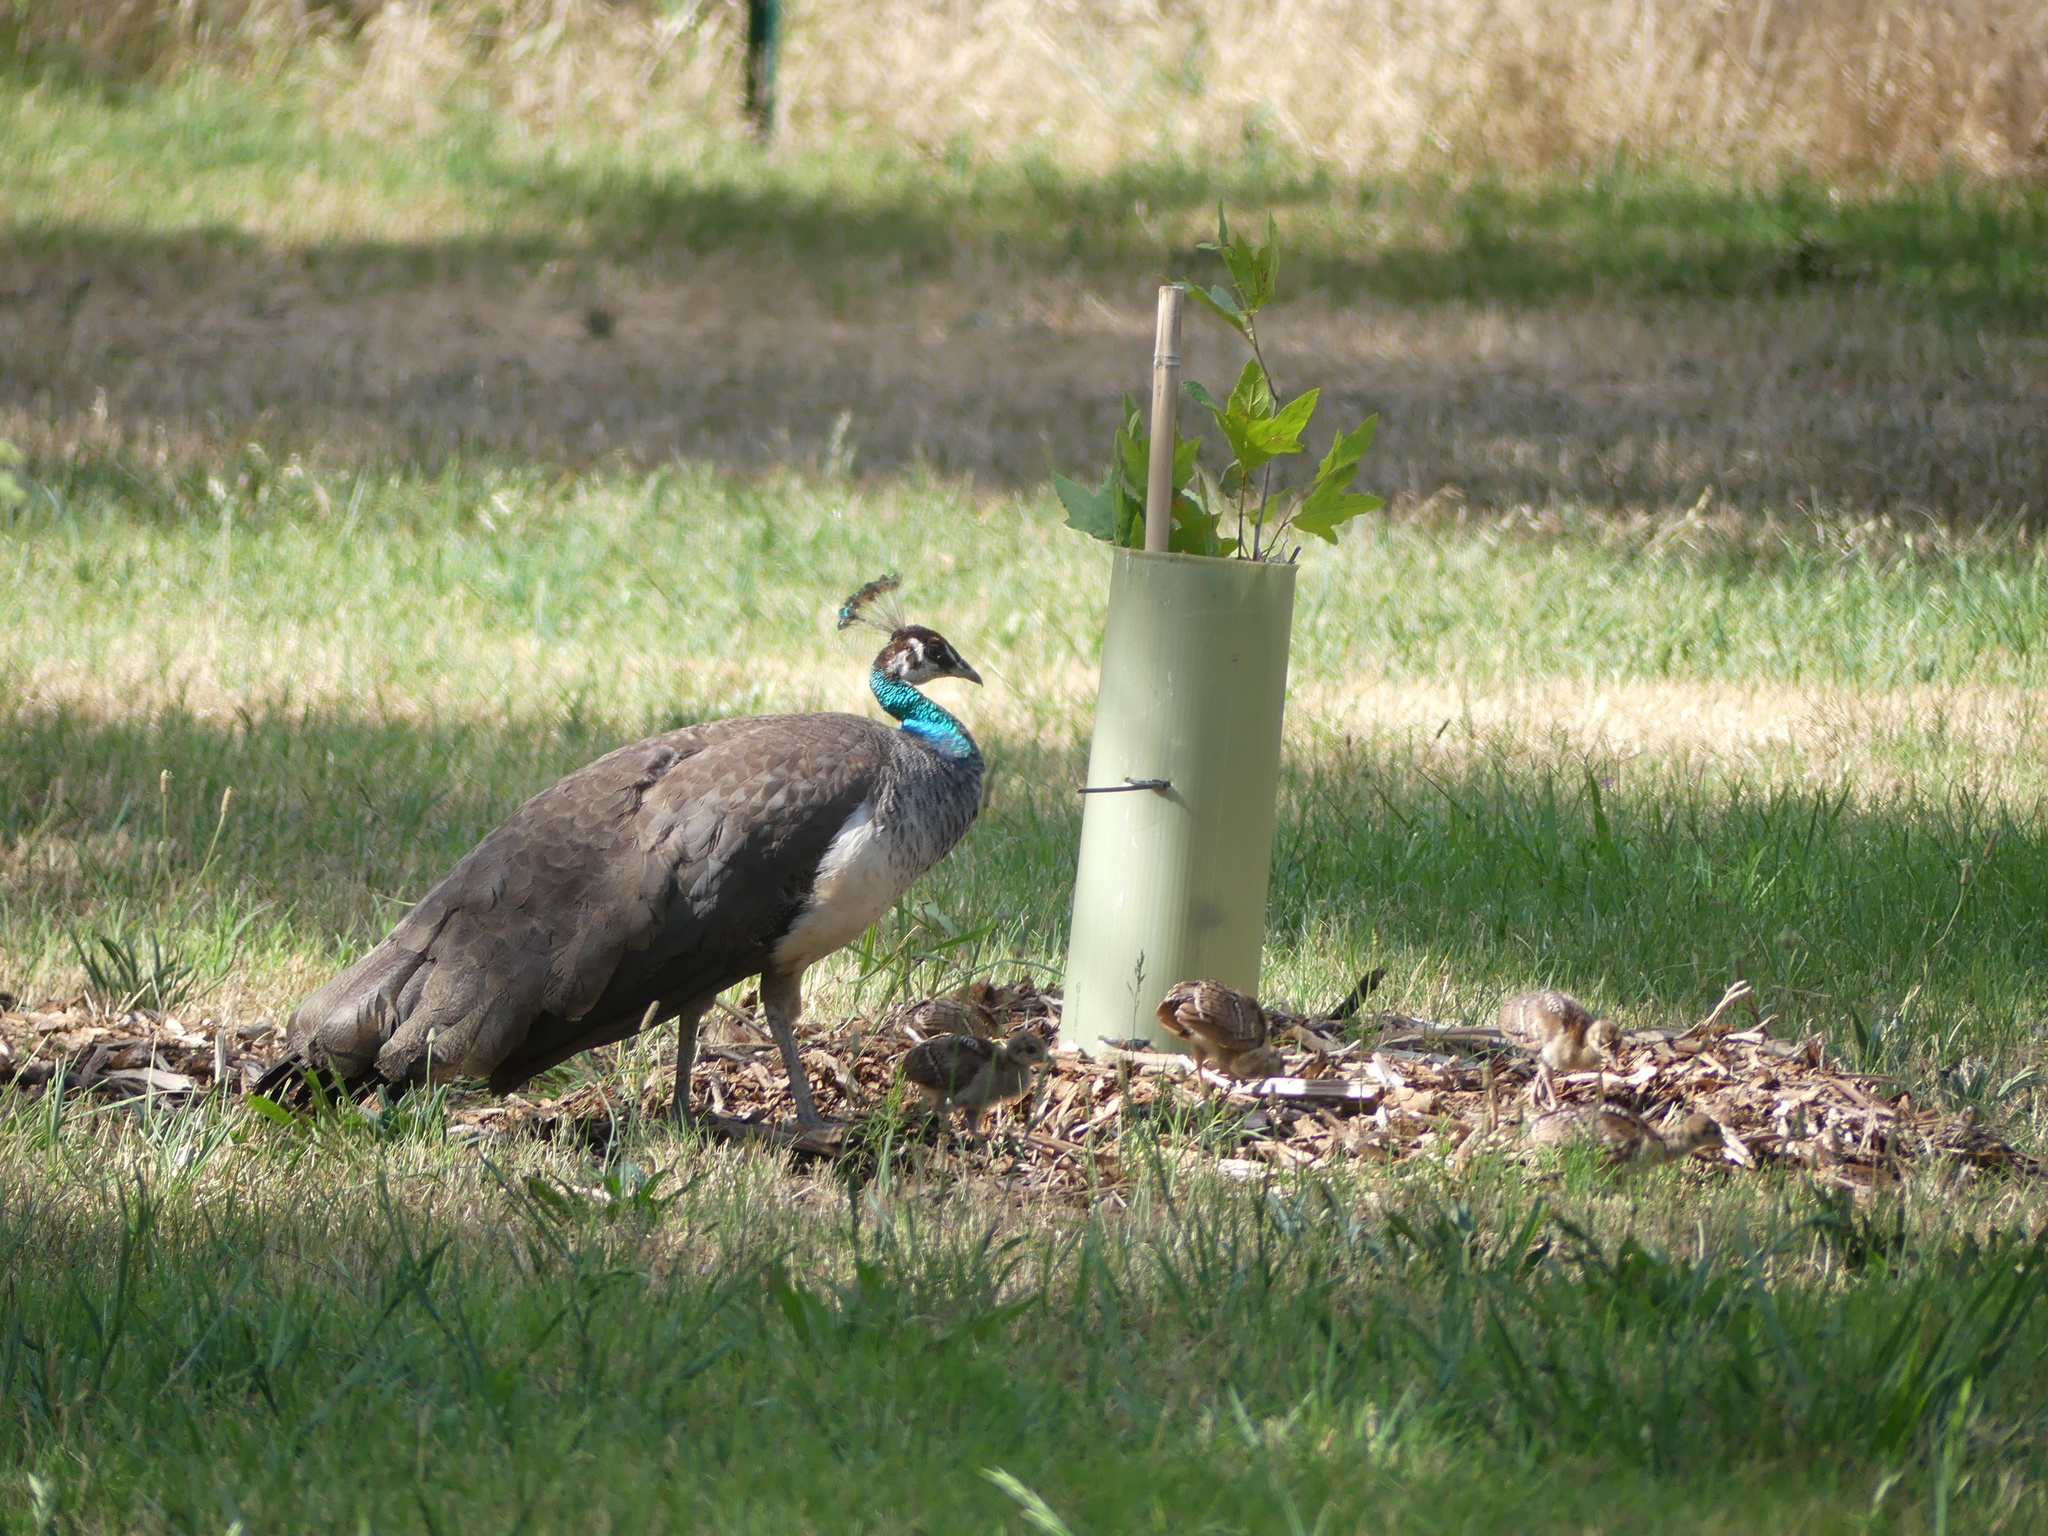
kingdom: Animalia
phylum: Chordata
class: Aves
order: Galliformes
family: Phasianidae
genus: Pavo
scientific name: Pavo cristatus
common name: Indian peafowl
